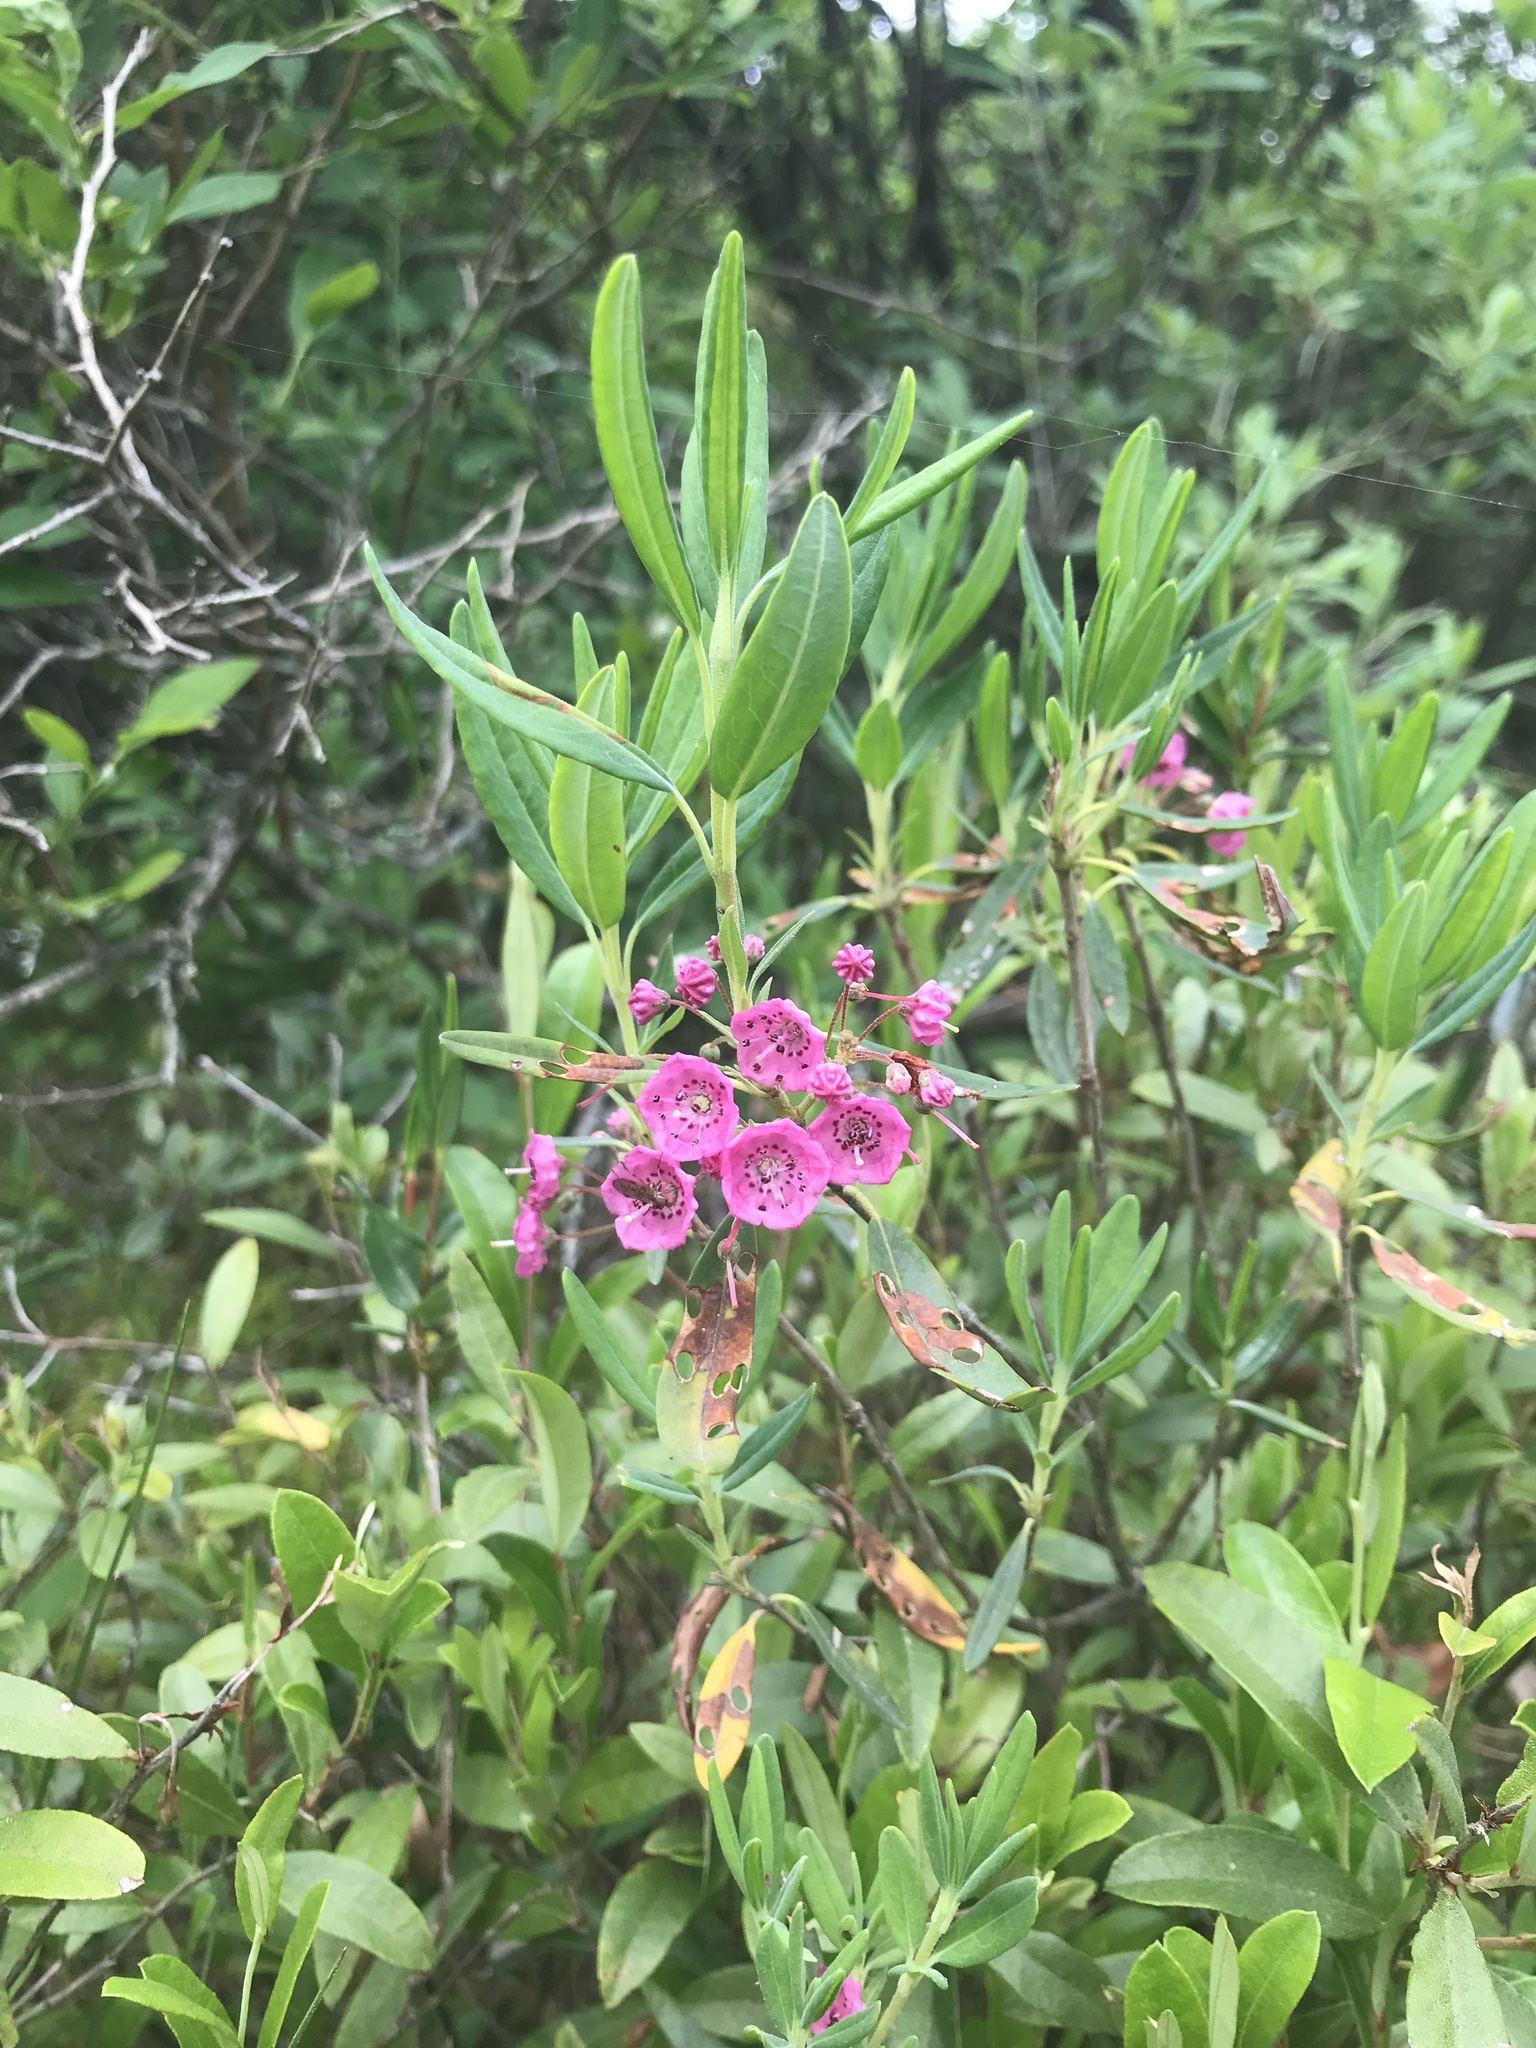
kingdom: Plantae
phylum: Tracheophyta
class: Magnoliopsida
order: Ericales
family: Ericaceae
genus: Kalmia
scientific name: Kalmia angustifolia
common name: Sheep-laurel
